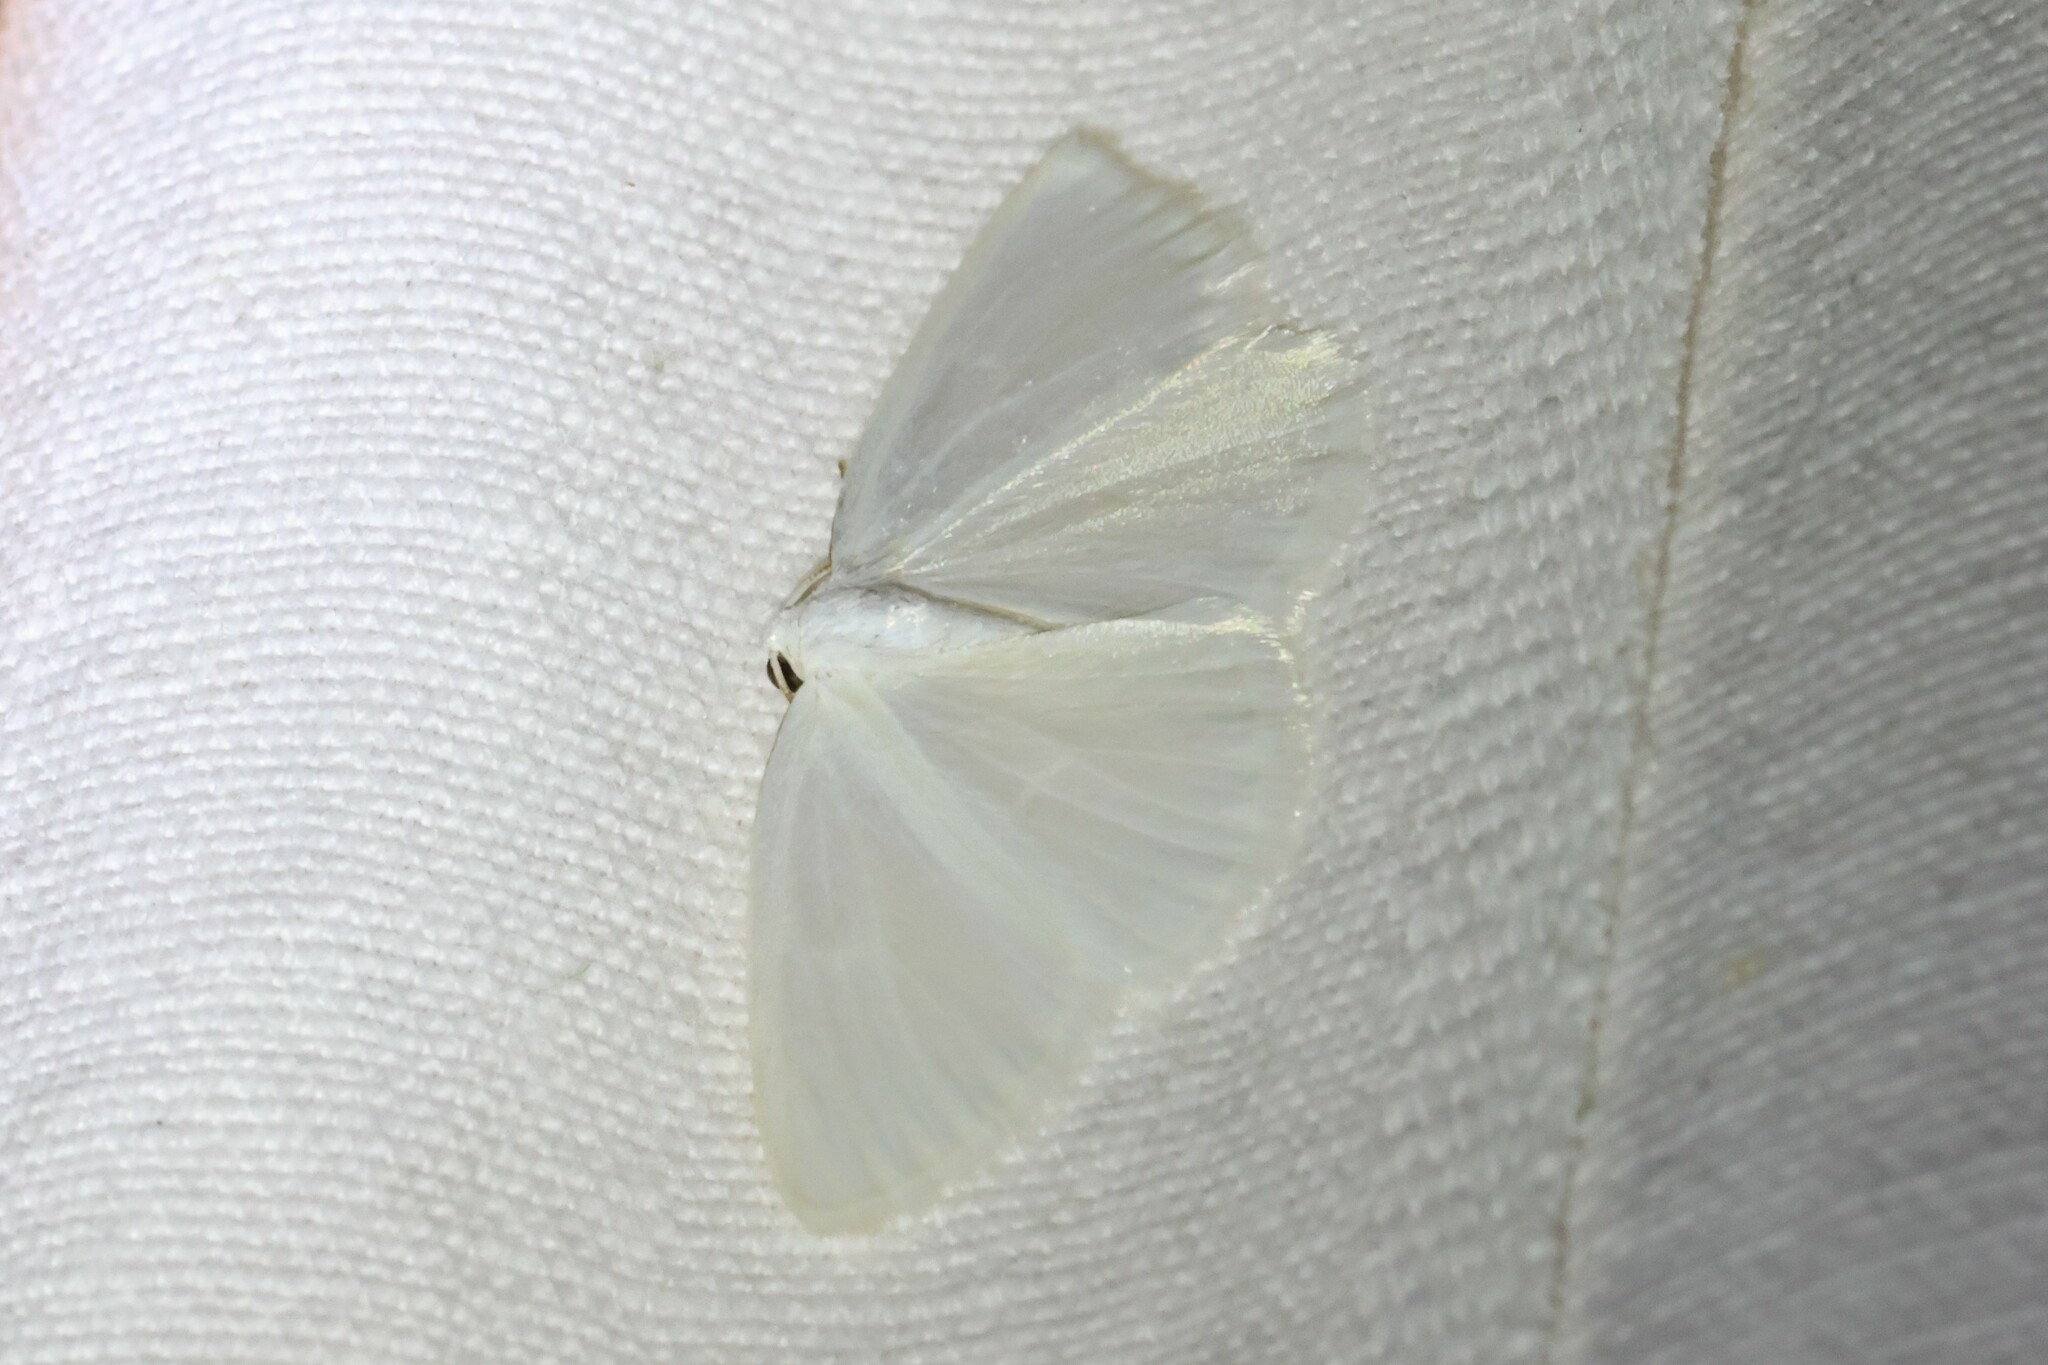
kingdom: Animalia
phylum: Arthropoda
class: Insecta
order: Lepidoptera
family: Geometridae
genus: Lomographa
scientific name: Lomographa vestaliata
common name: White spring moth
